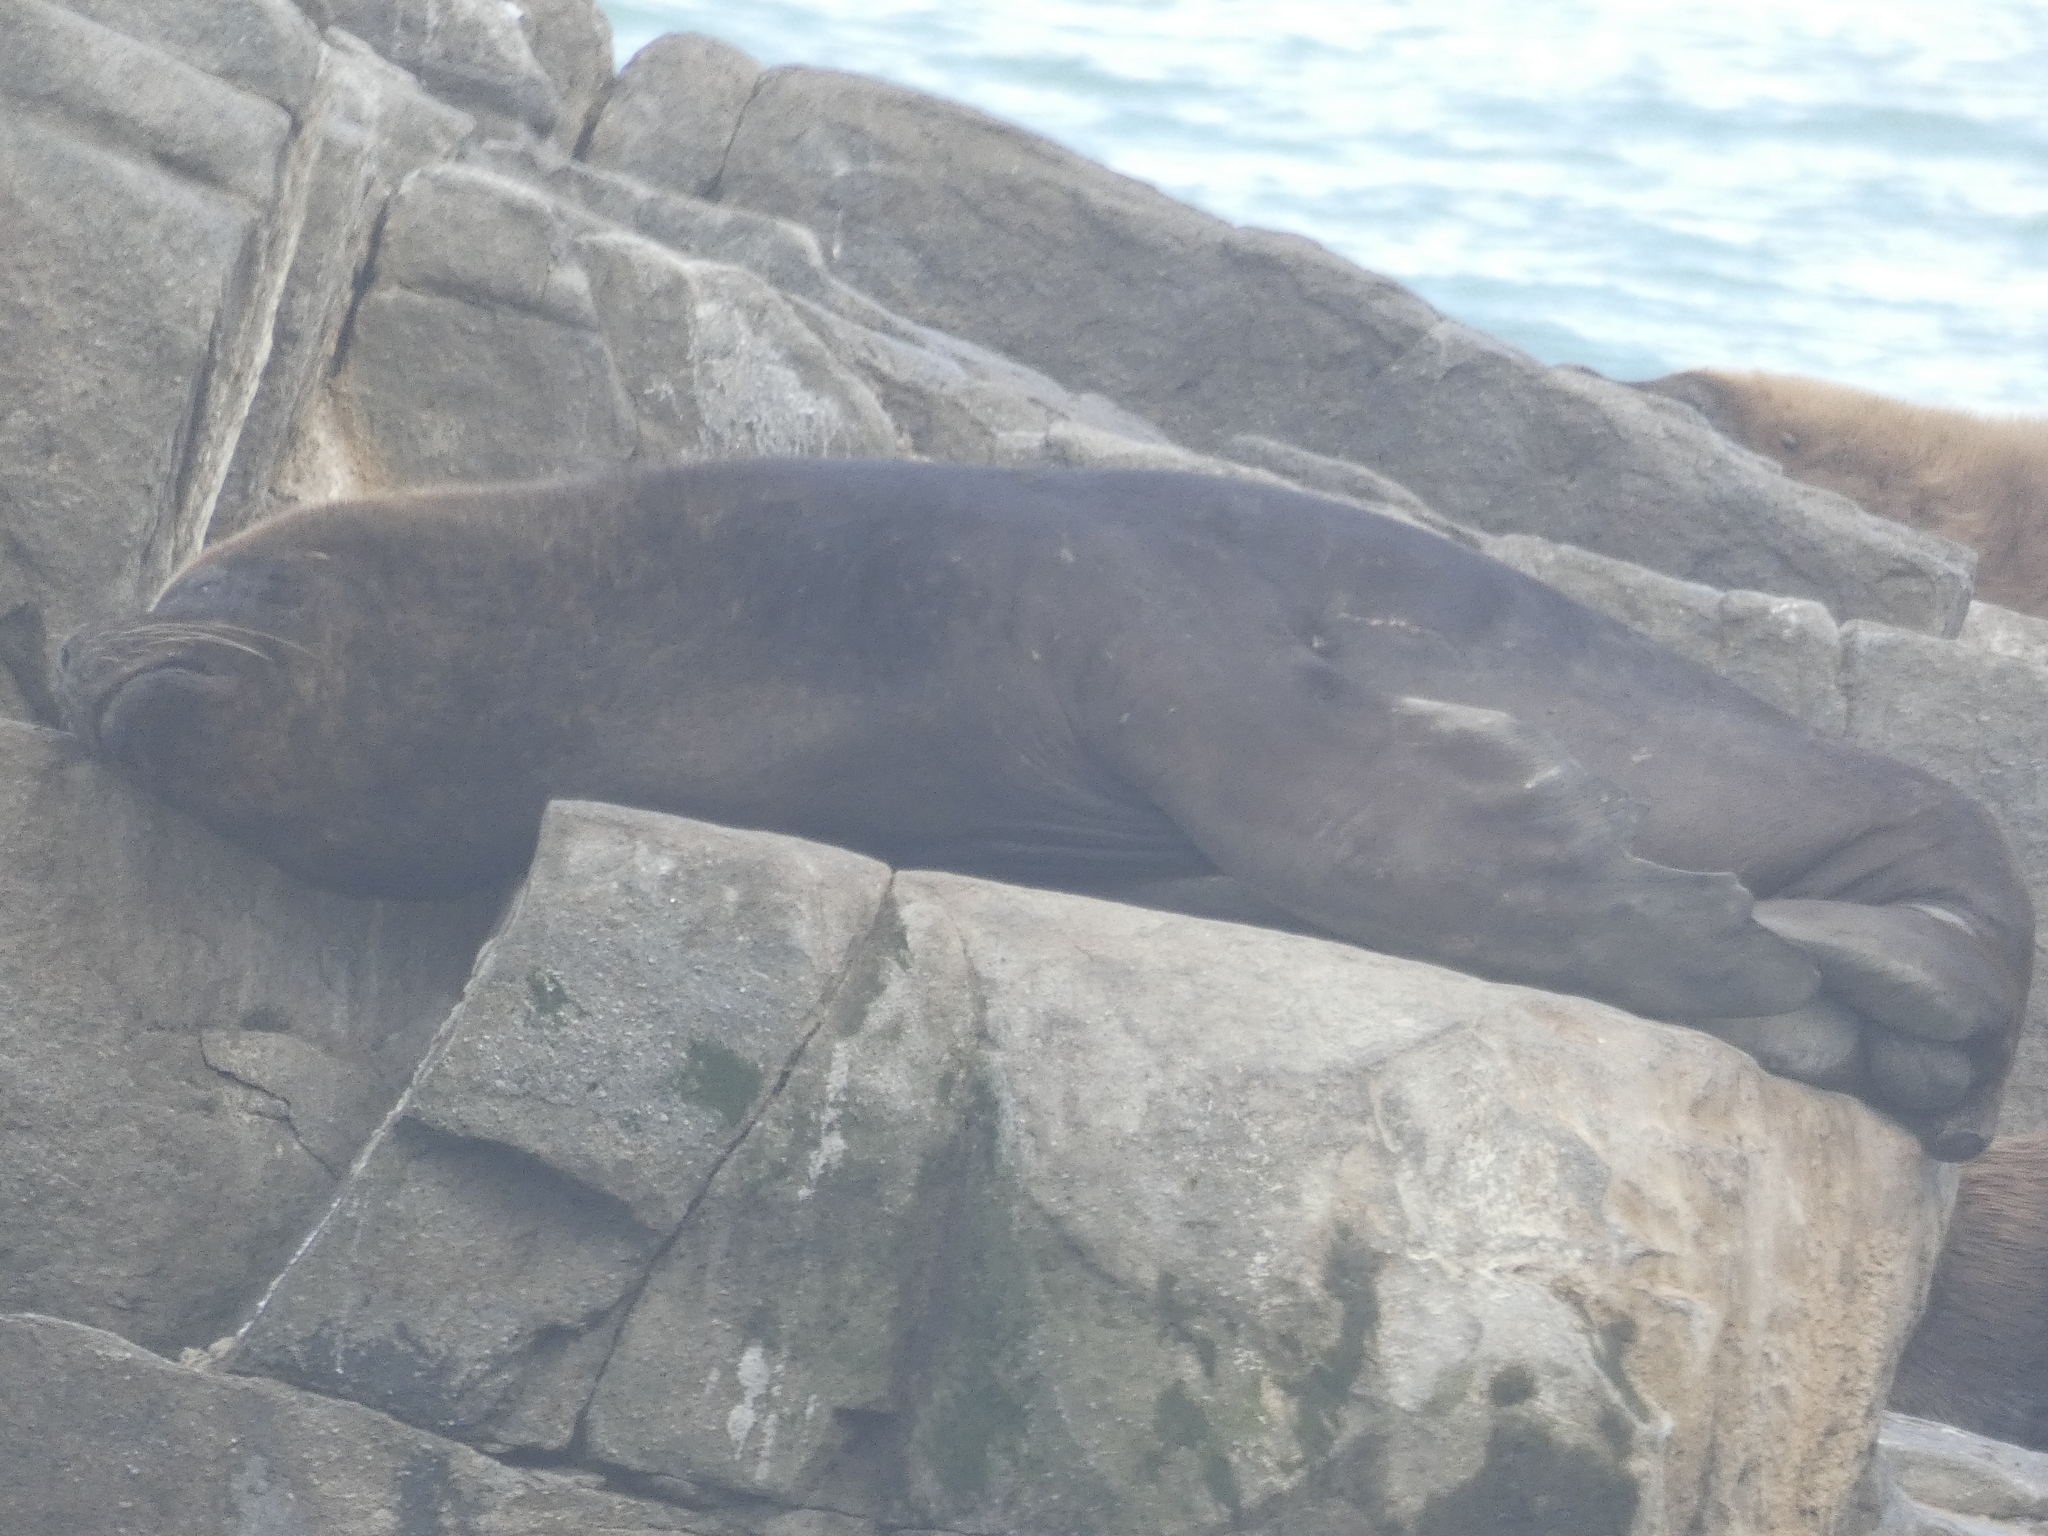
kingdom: Animalia
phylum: Chordata
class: Mammalia
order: Carnivora
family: Otariidae
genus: Otaria
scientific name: Otaria byronia
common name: South american sea lion
